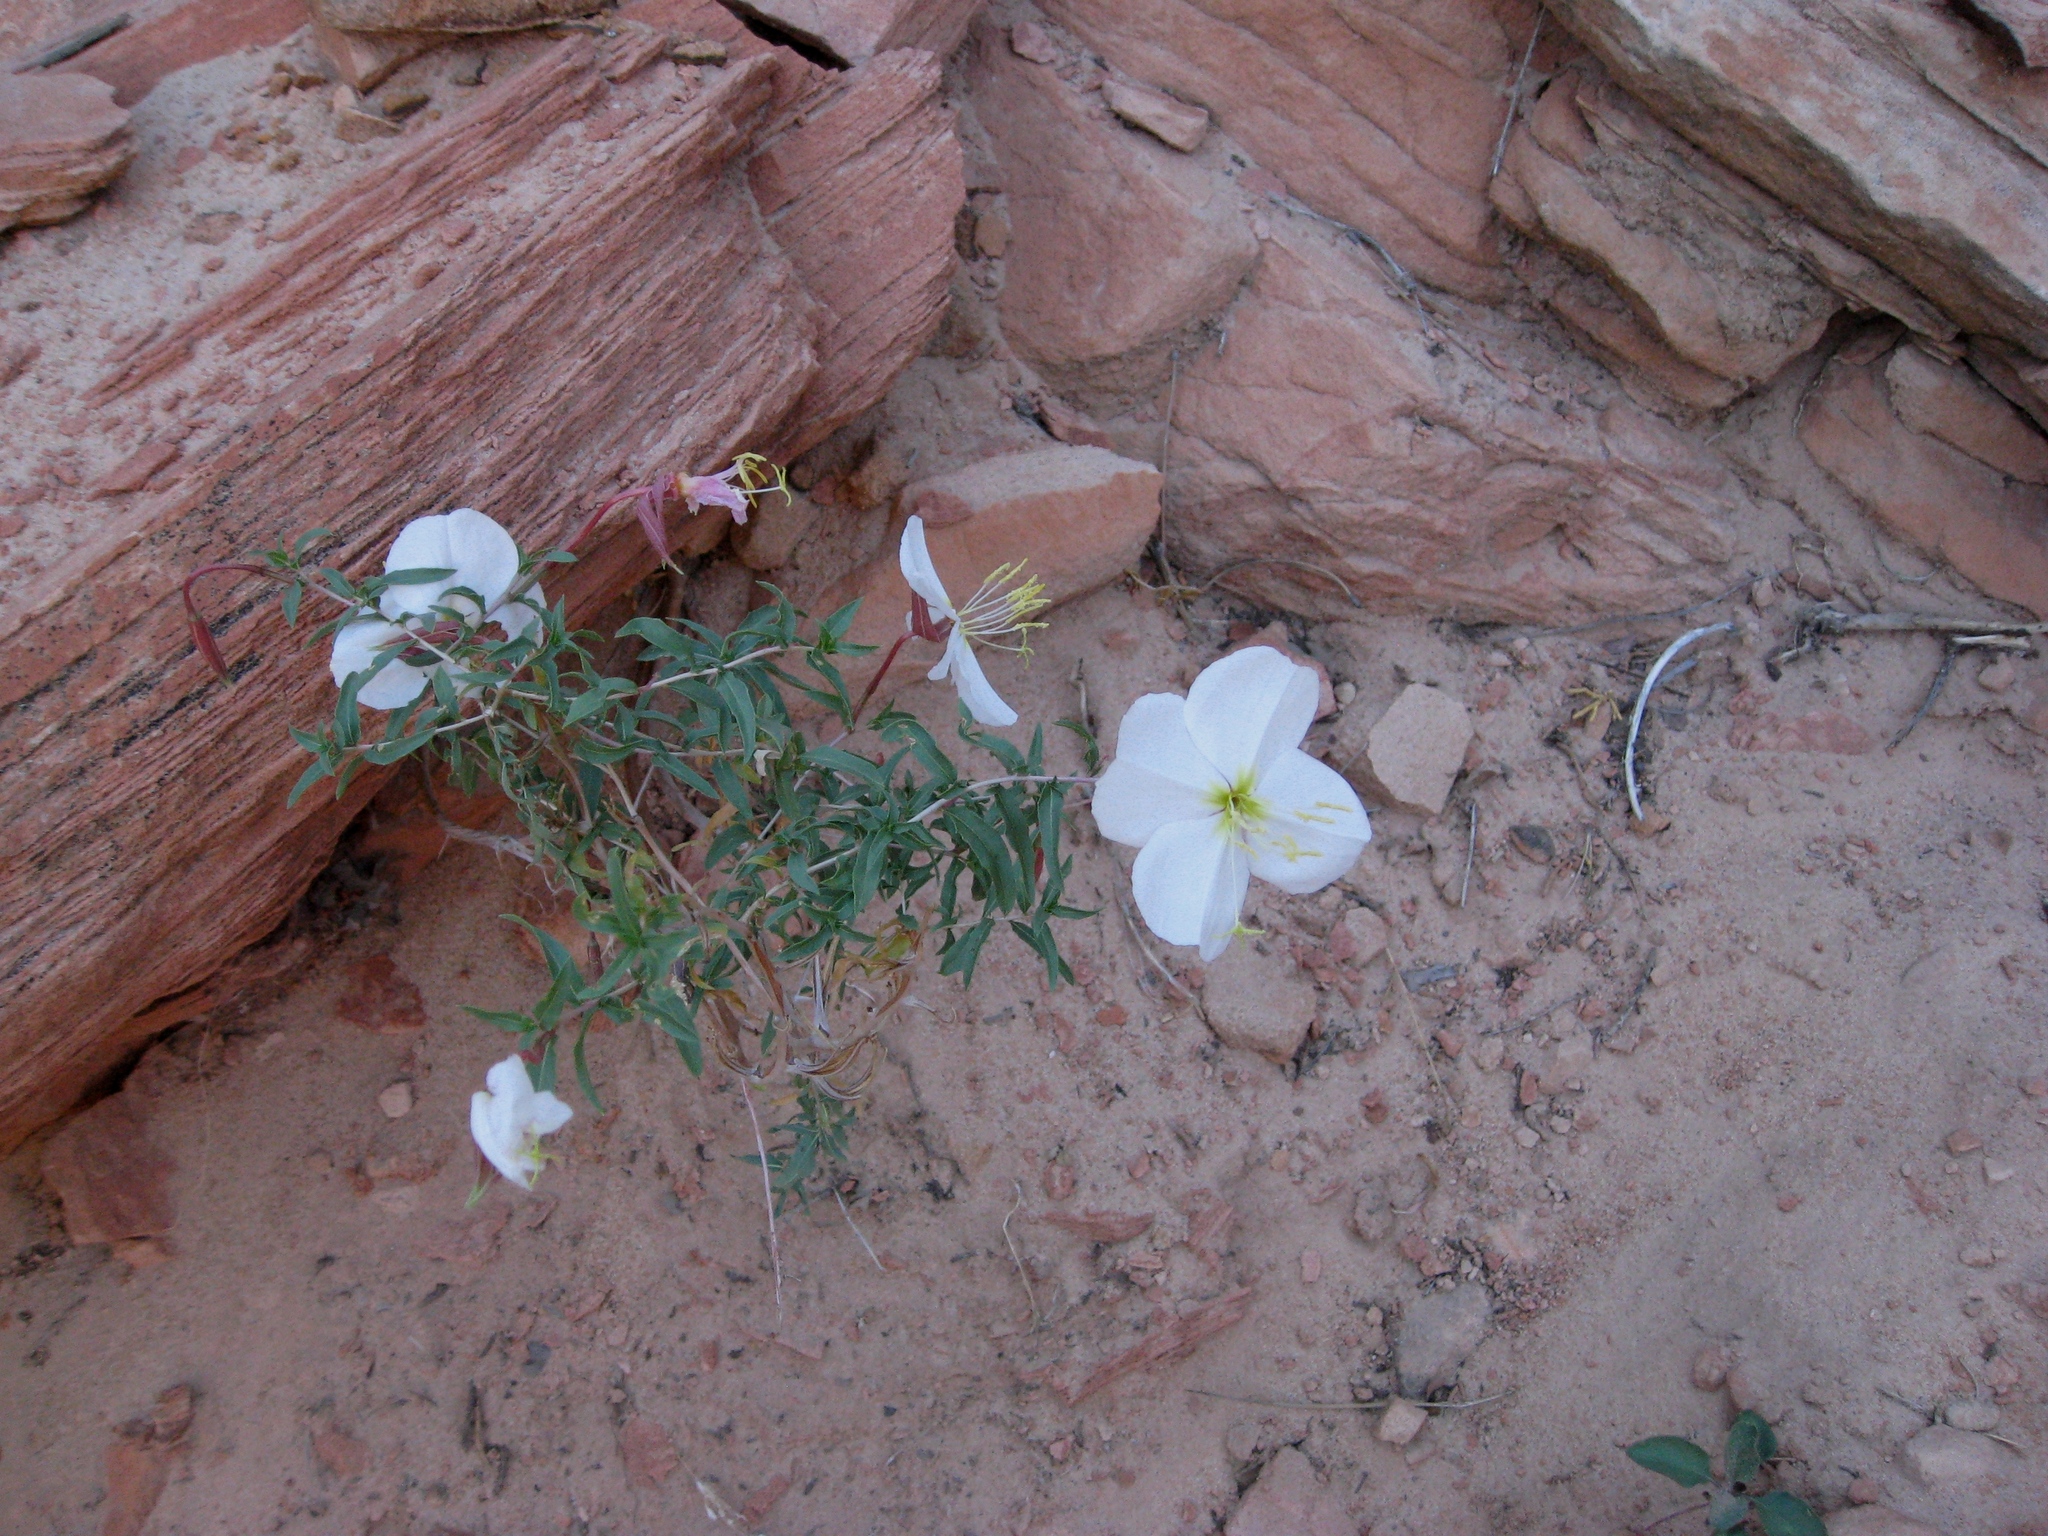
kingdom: Plantae
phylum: Tracheophyta
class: Magnoliopsida
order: Myrtales
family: Onagraceae
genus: Oenothera
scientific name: Oenothera pallida
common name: Pale evening-primrose
